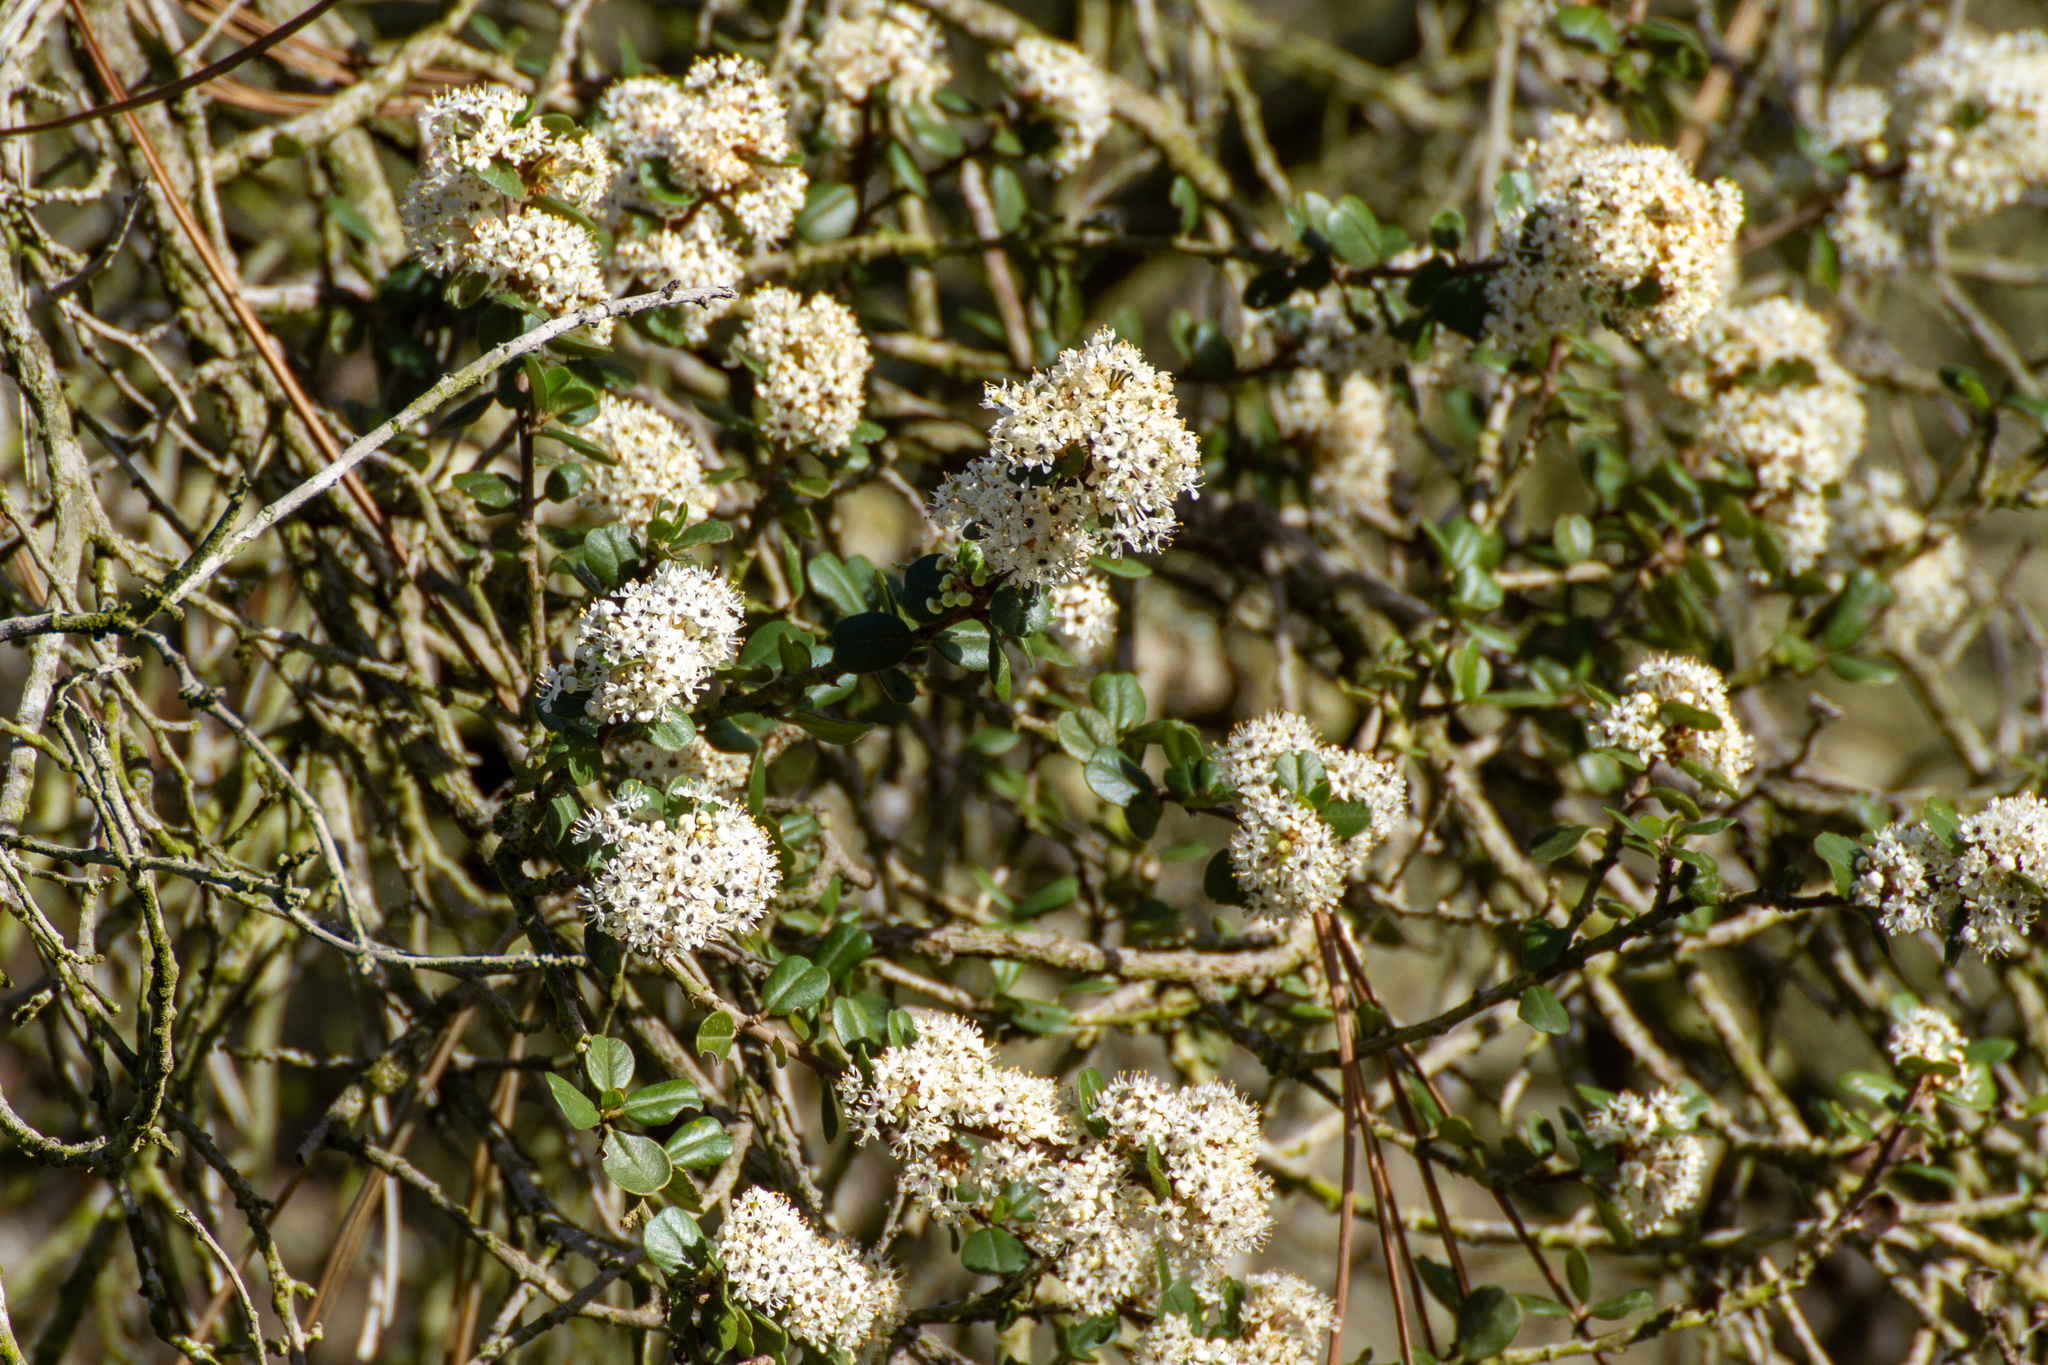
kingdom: Plantae
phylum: Tracheophyta
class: Magnoliopsida
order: Rosales
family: Rhamnaceae
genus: Ceanothus
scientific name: Ceanothus verrucosus
